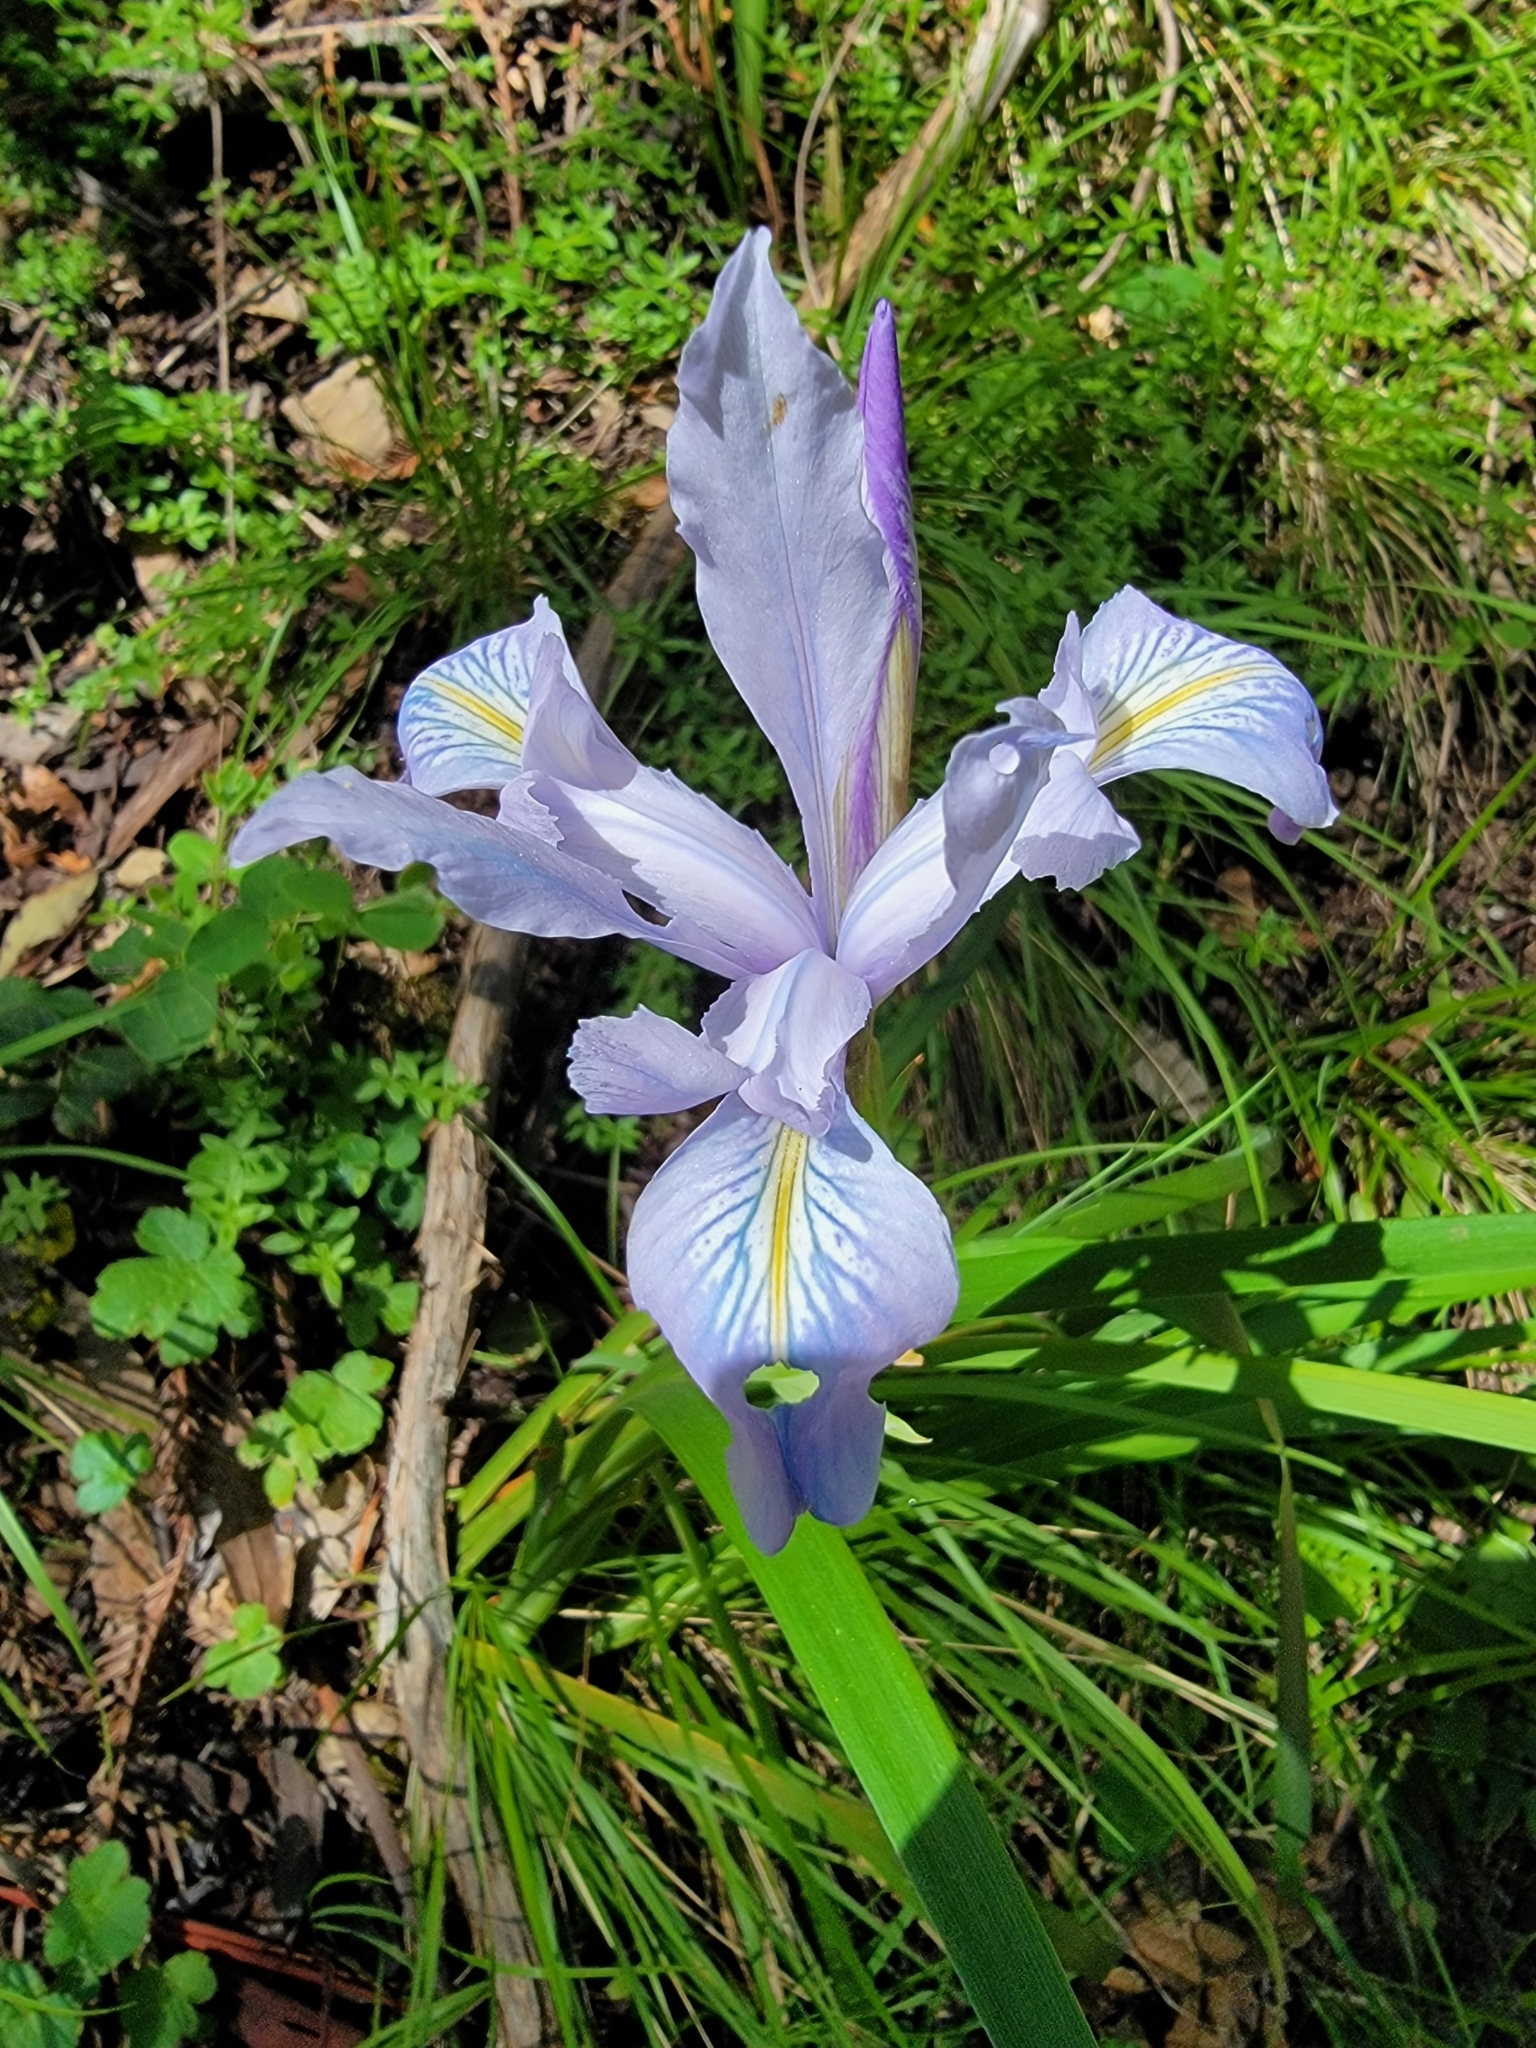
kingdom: Plantae
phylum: Tracheophyta
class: Liliopsida
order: Asparagales
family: Iridaceae
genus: Iris
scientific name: Iris douglasiana
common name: Marin iris
